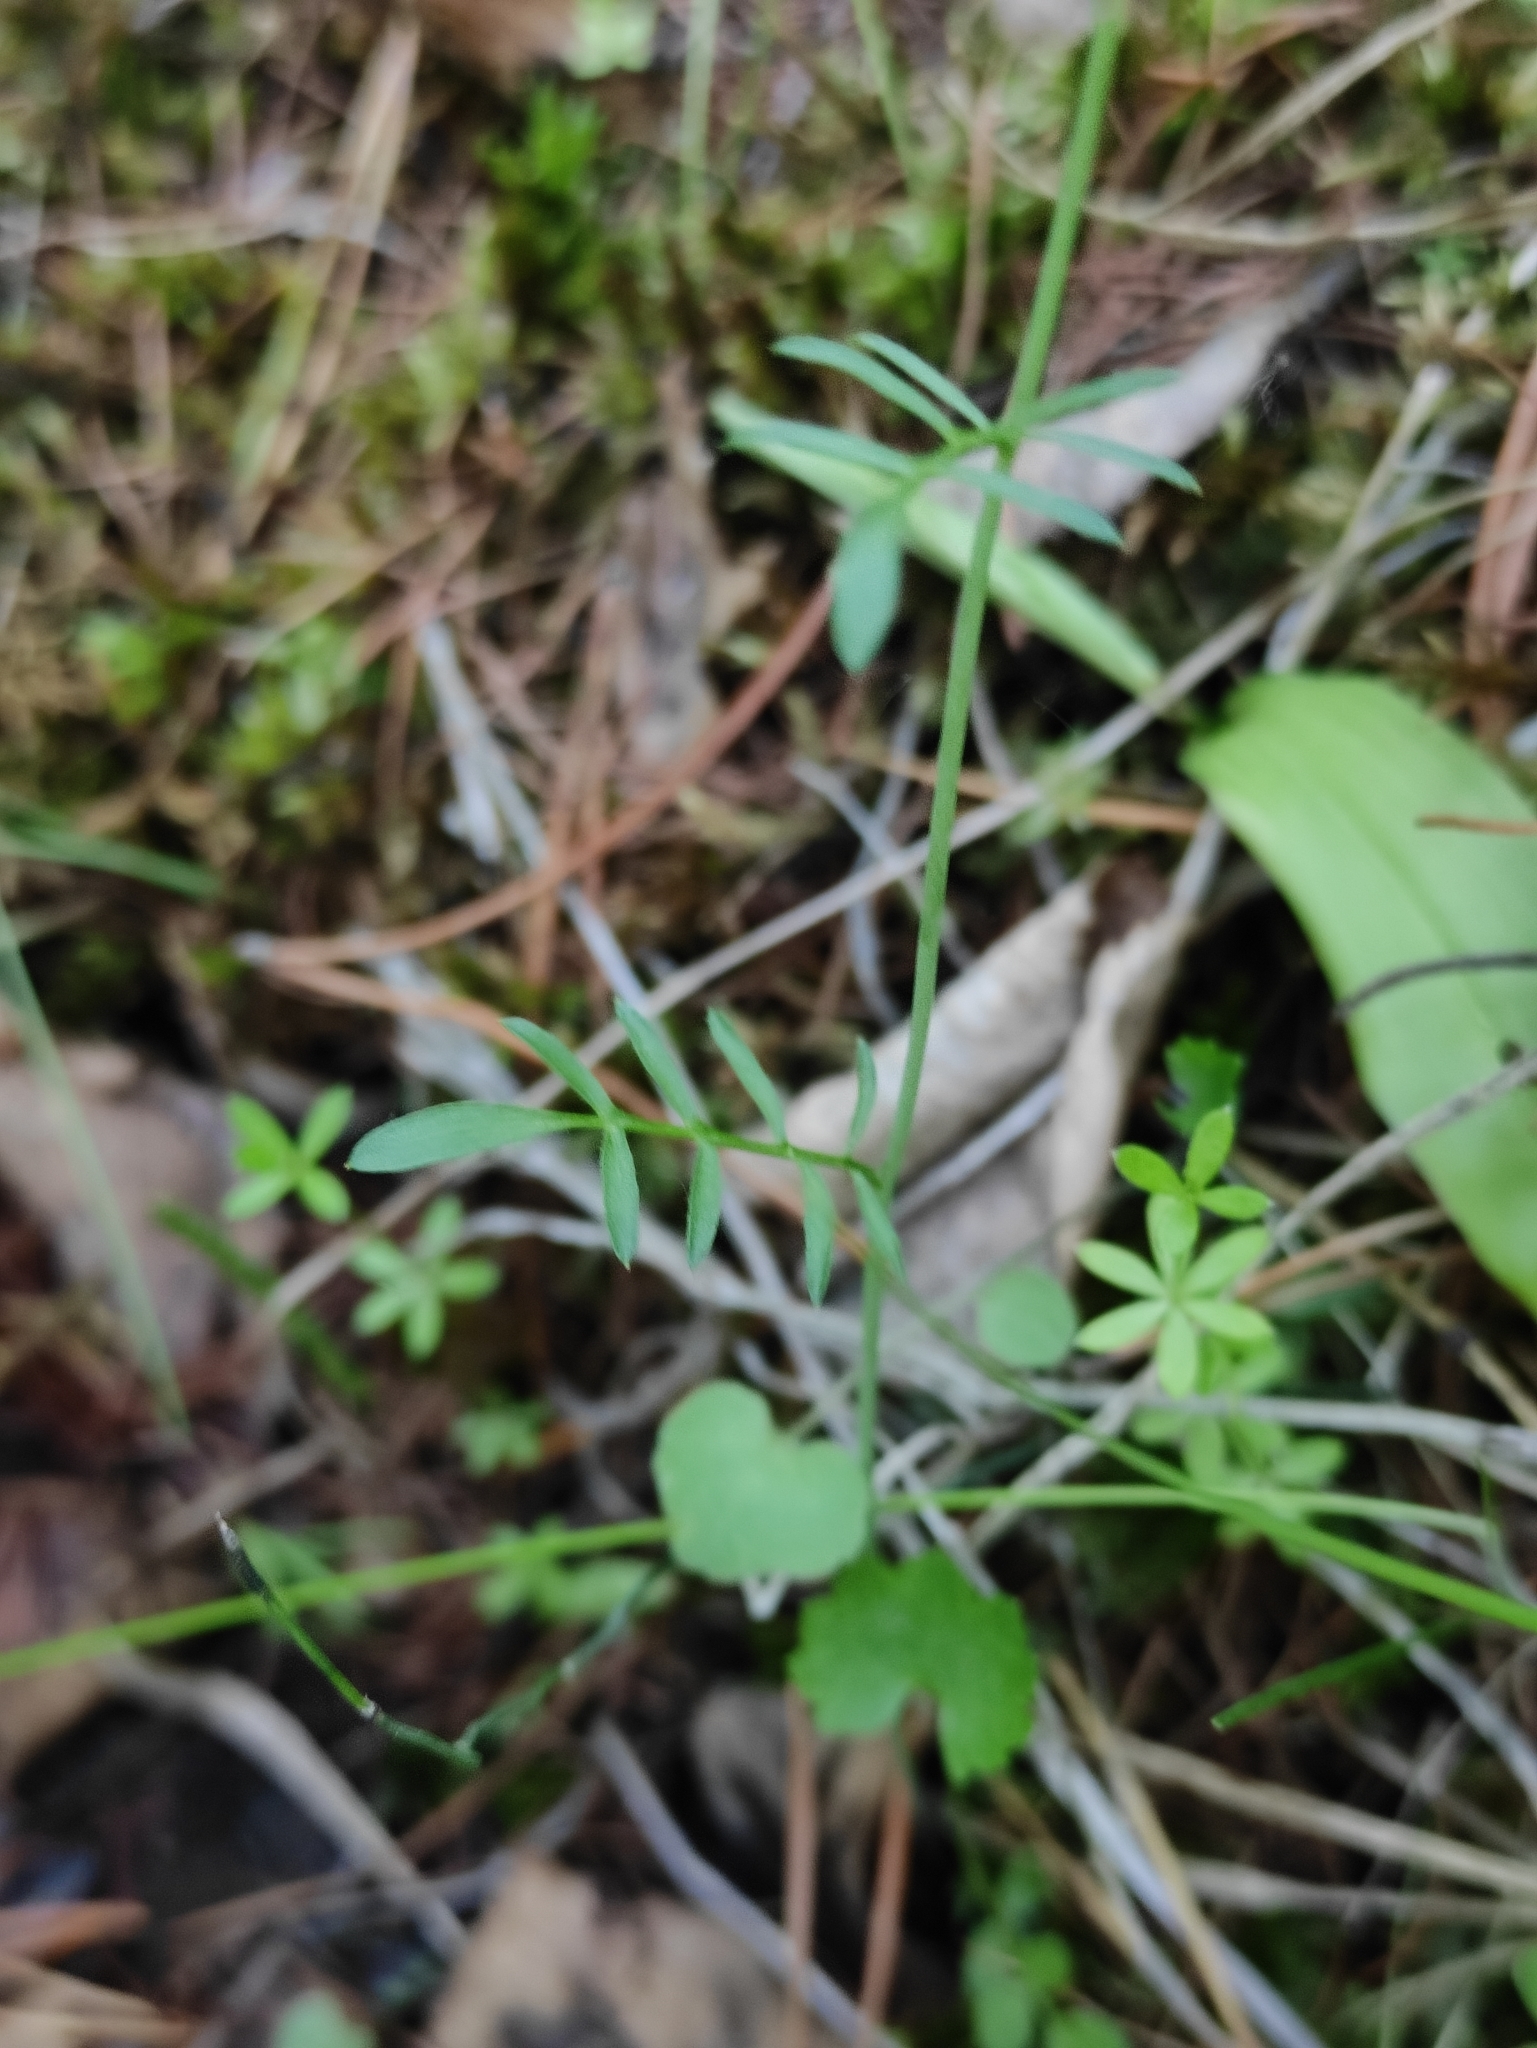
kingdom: Plantae
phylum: Tracheophyta
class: Magnoliopsida
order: Brassicales
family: Brassicaceae
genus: Cardamine
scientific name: Cardamine pratensis
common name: Cuckoo flower
